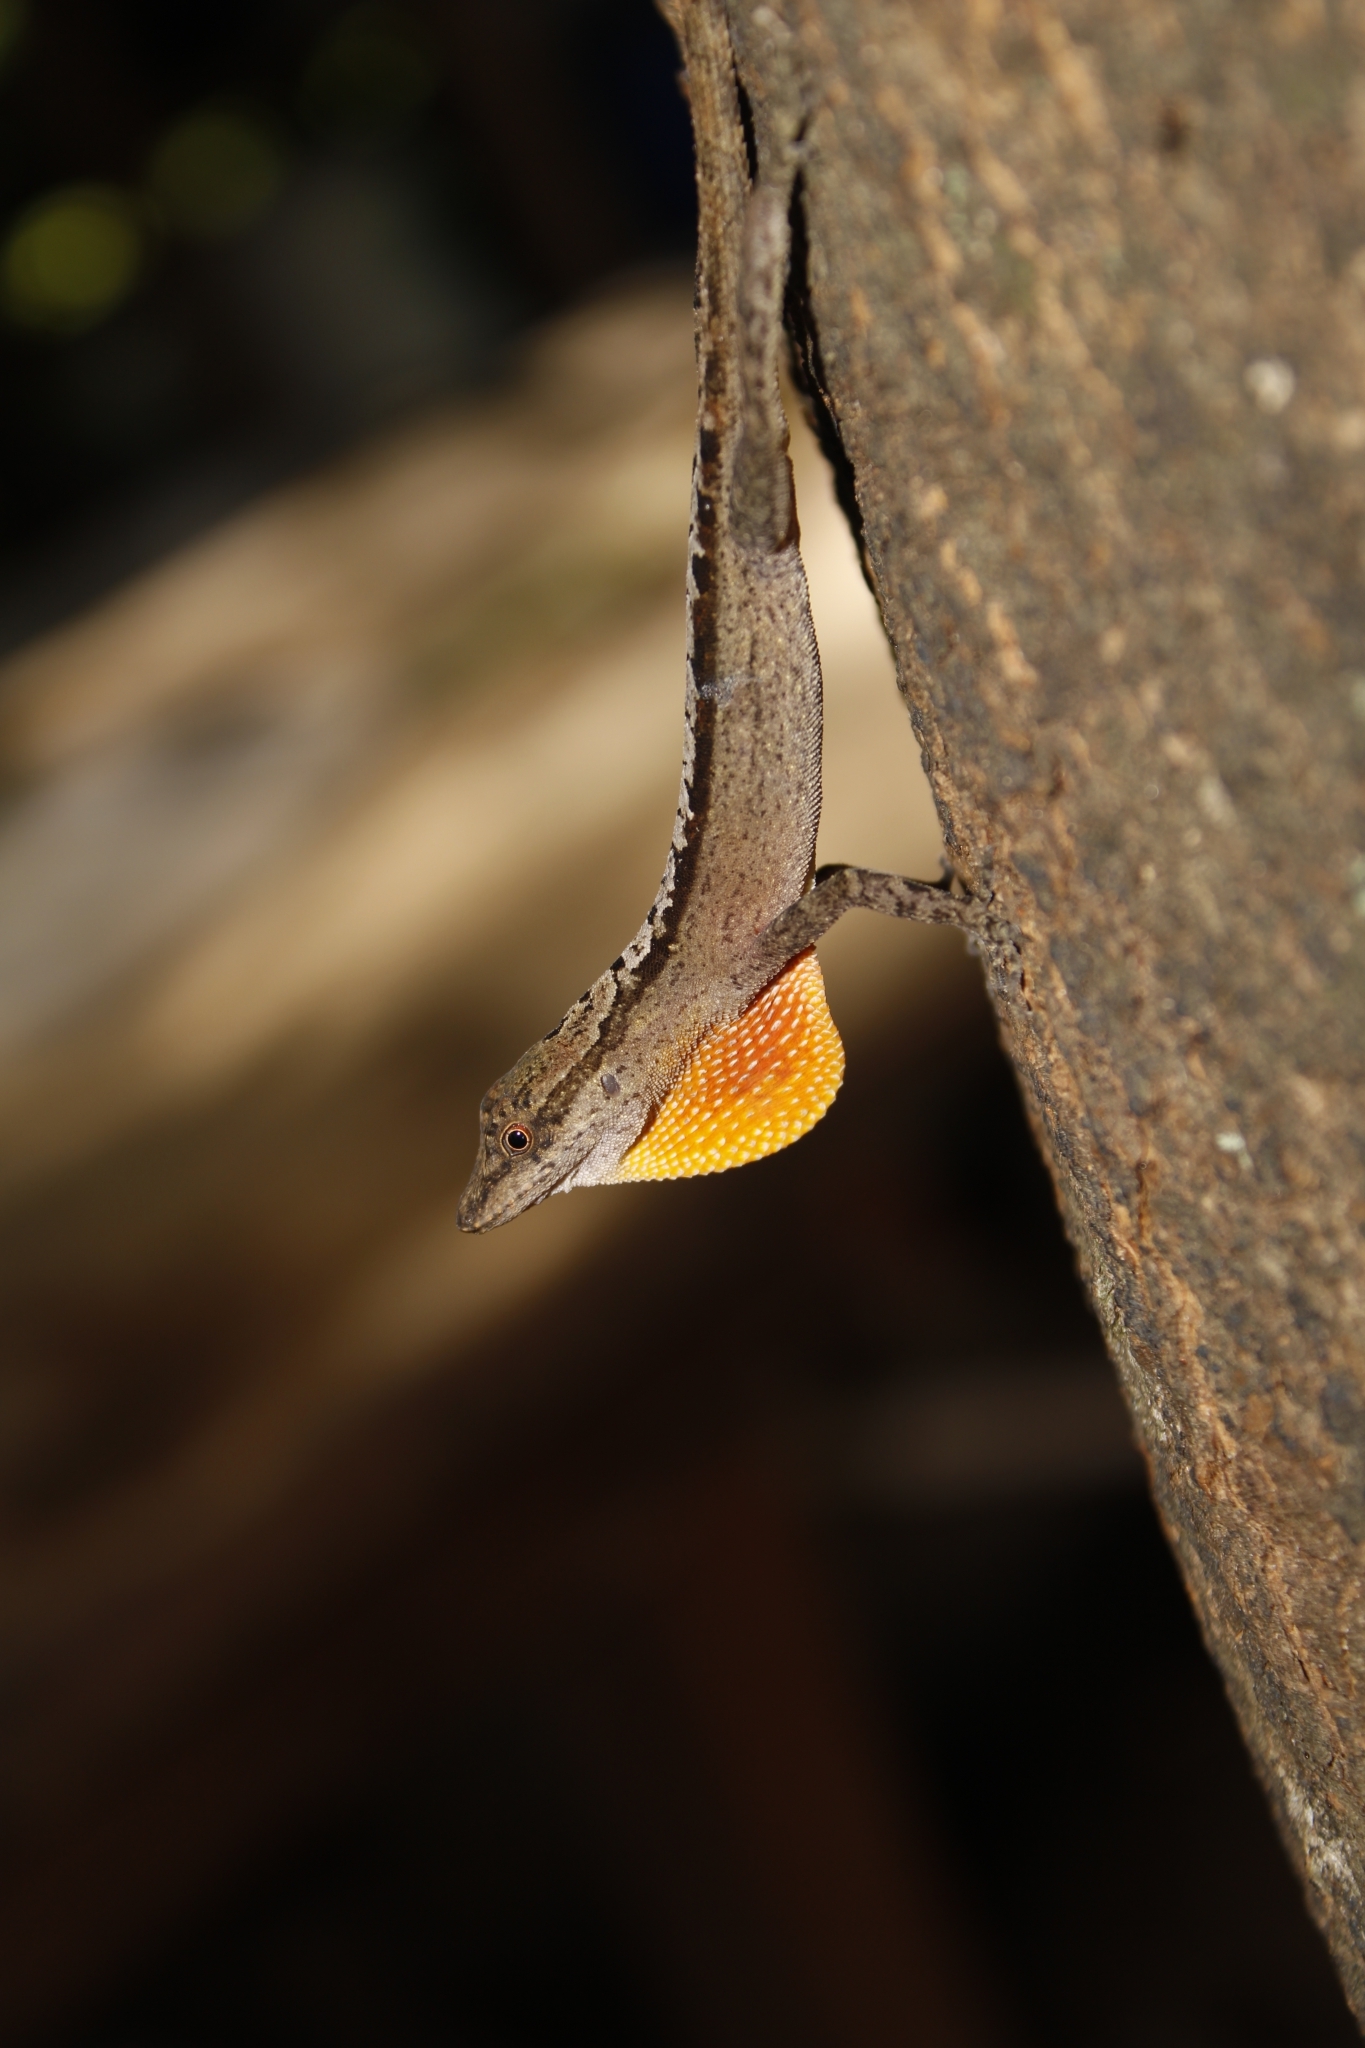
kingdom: Animalia
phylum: Chordata
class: Squamata
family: Dactyloidae
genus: Anolis
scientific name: Anolis gaigei
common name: Gaige’s anole
